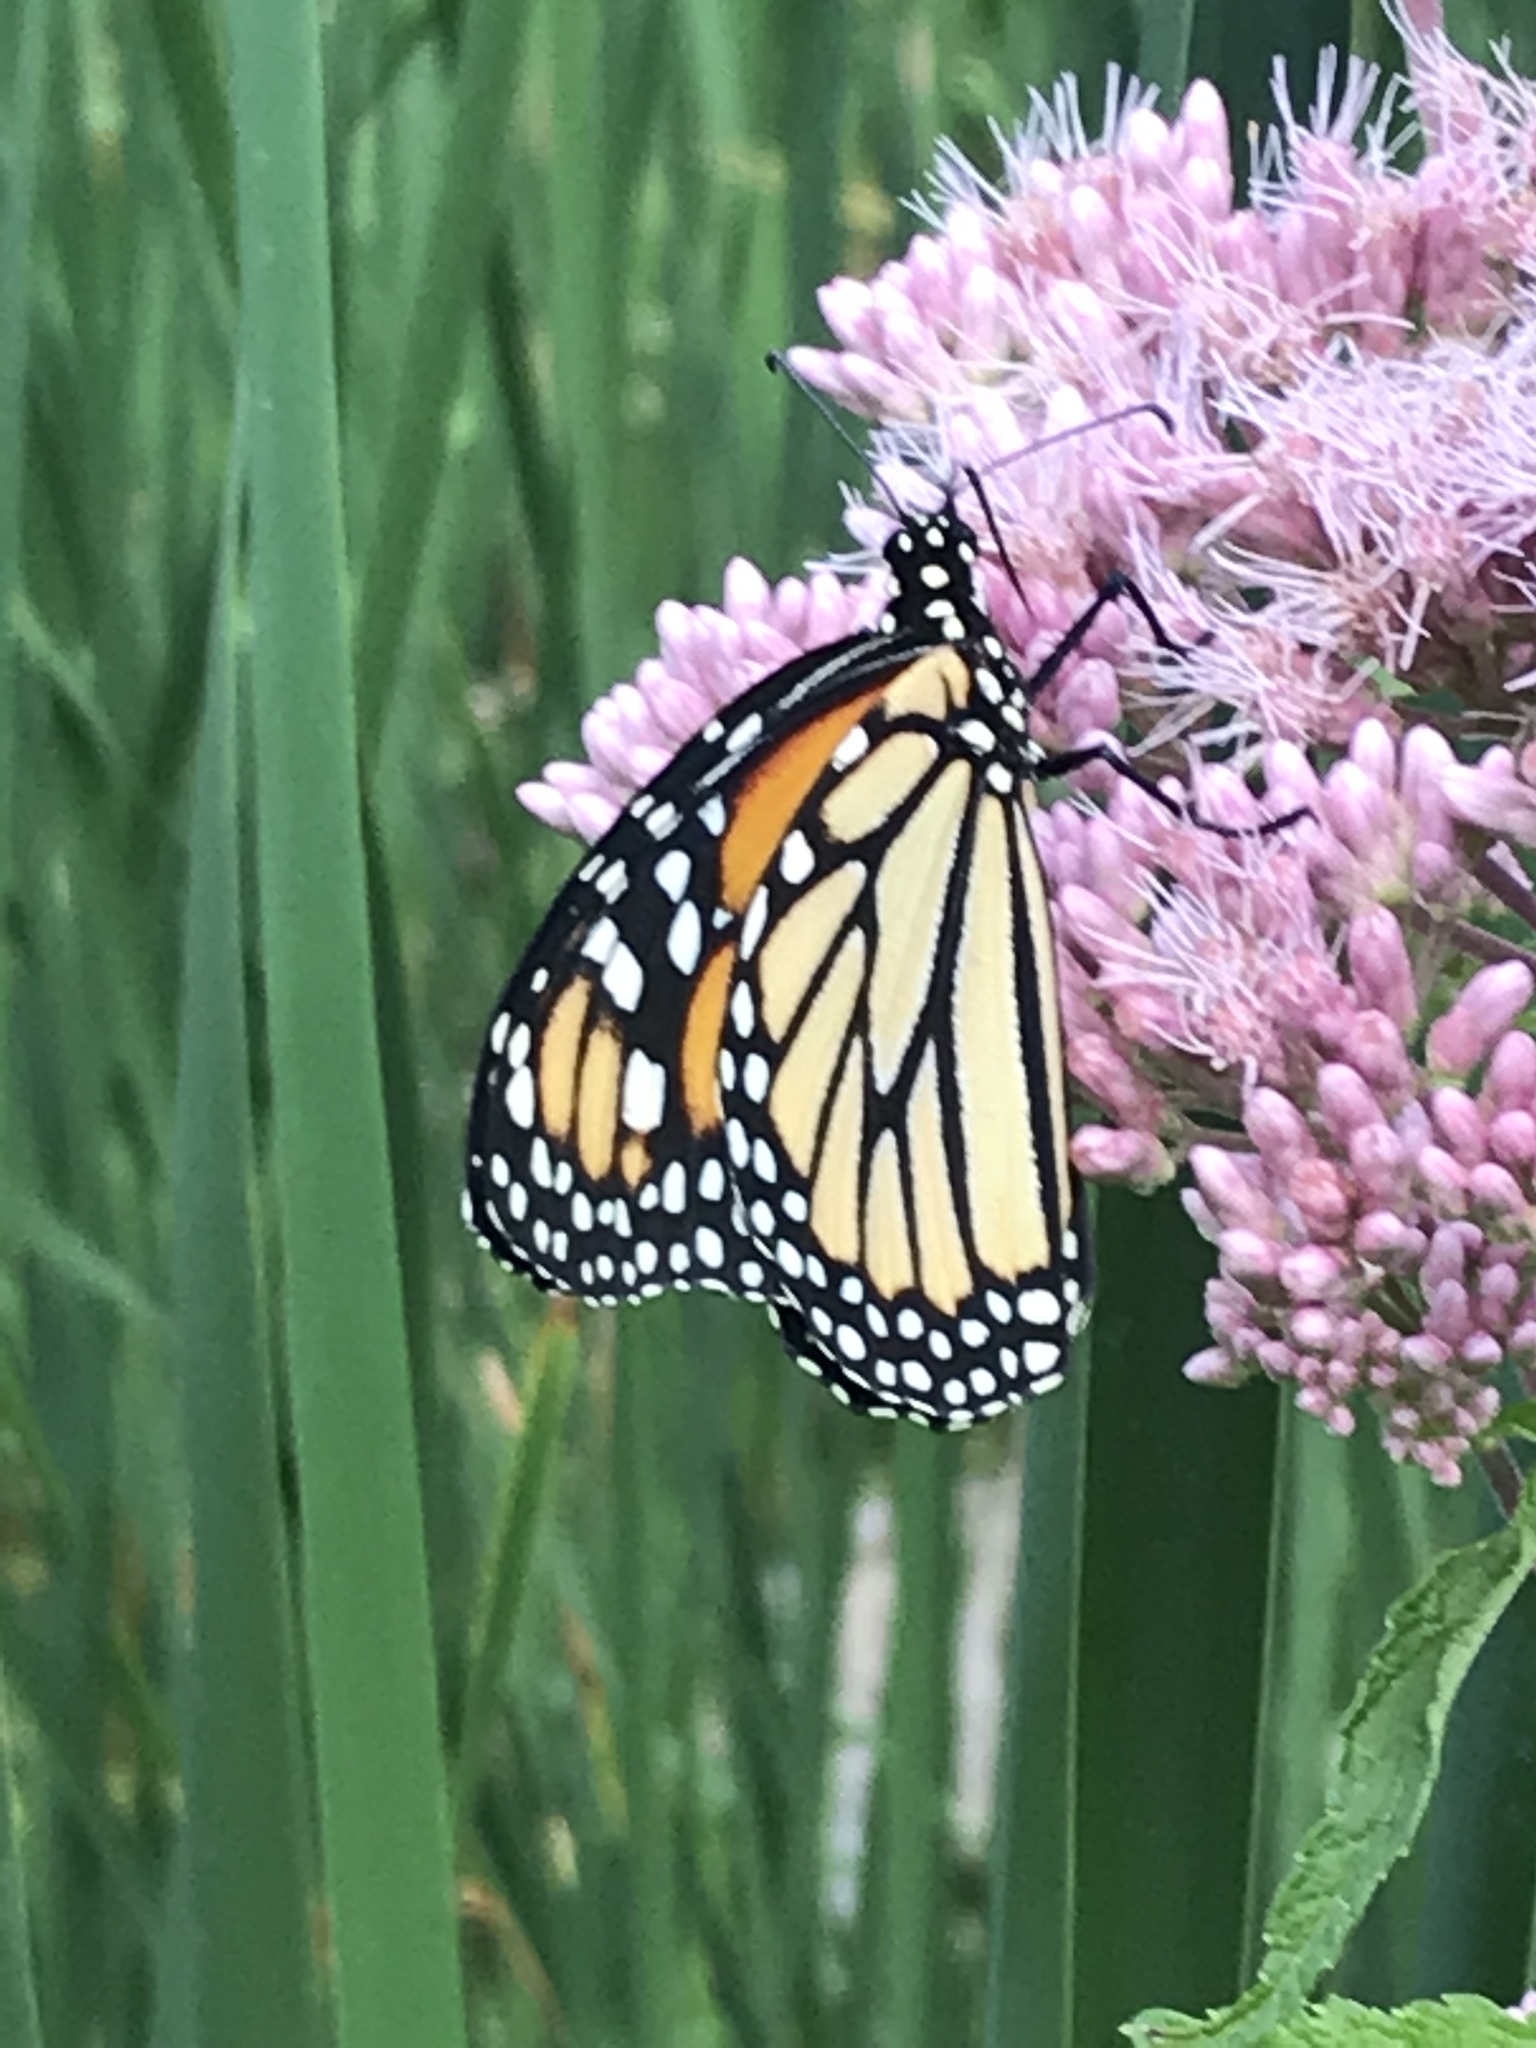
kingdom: Animalia
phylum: Arthropoda
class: Insecta
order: Lepidoptera
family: Nymphalidae
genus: Danaus
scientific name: Danaus plexippus
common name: Monarch
